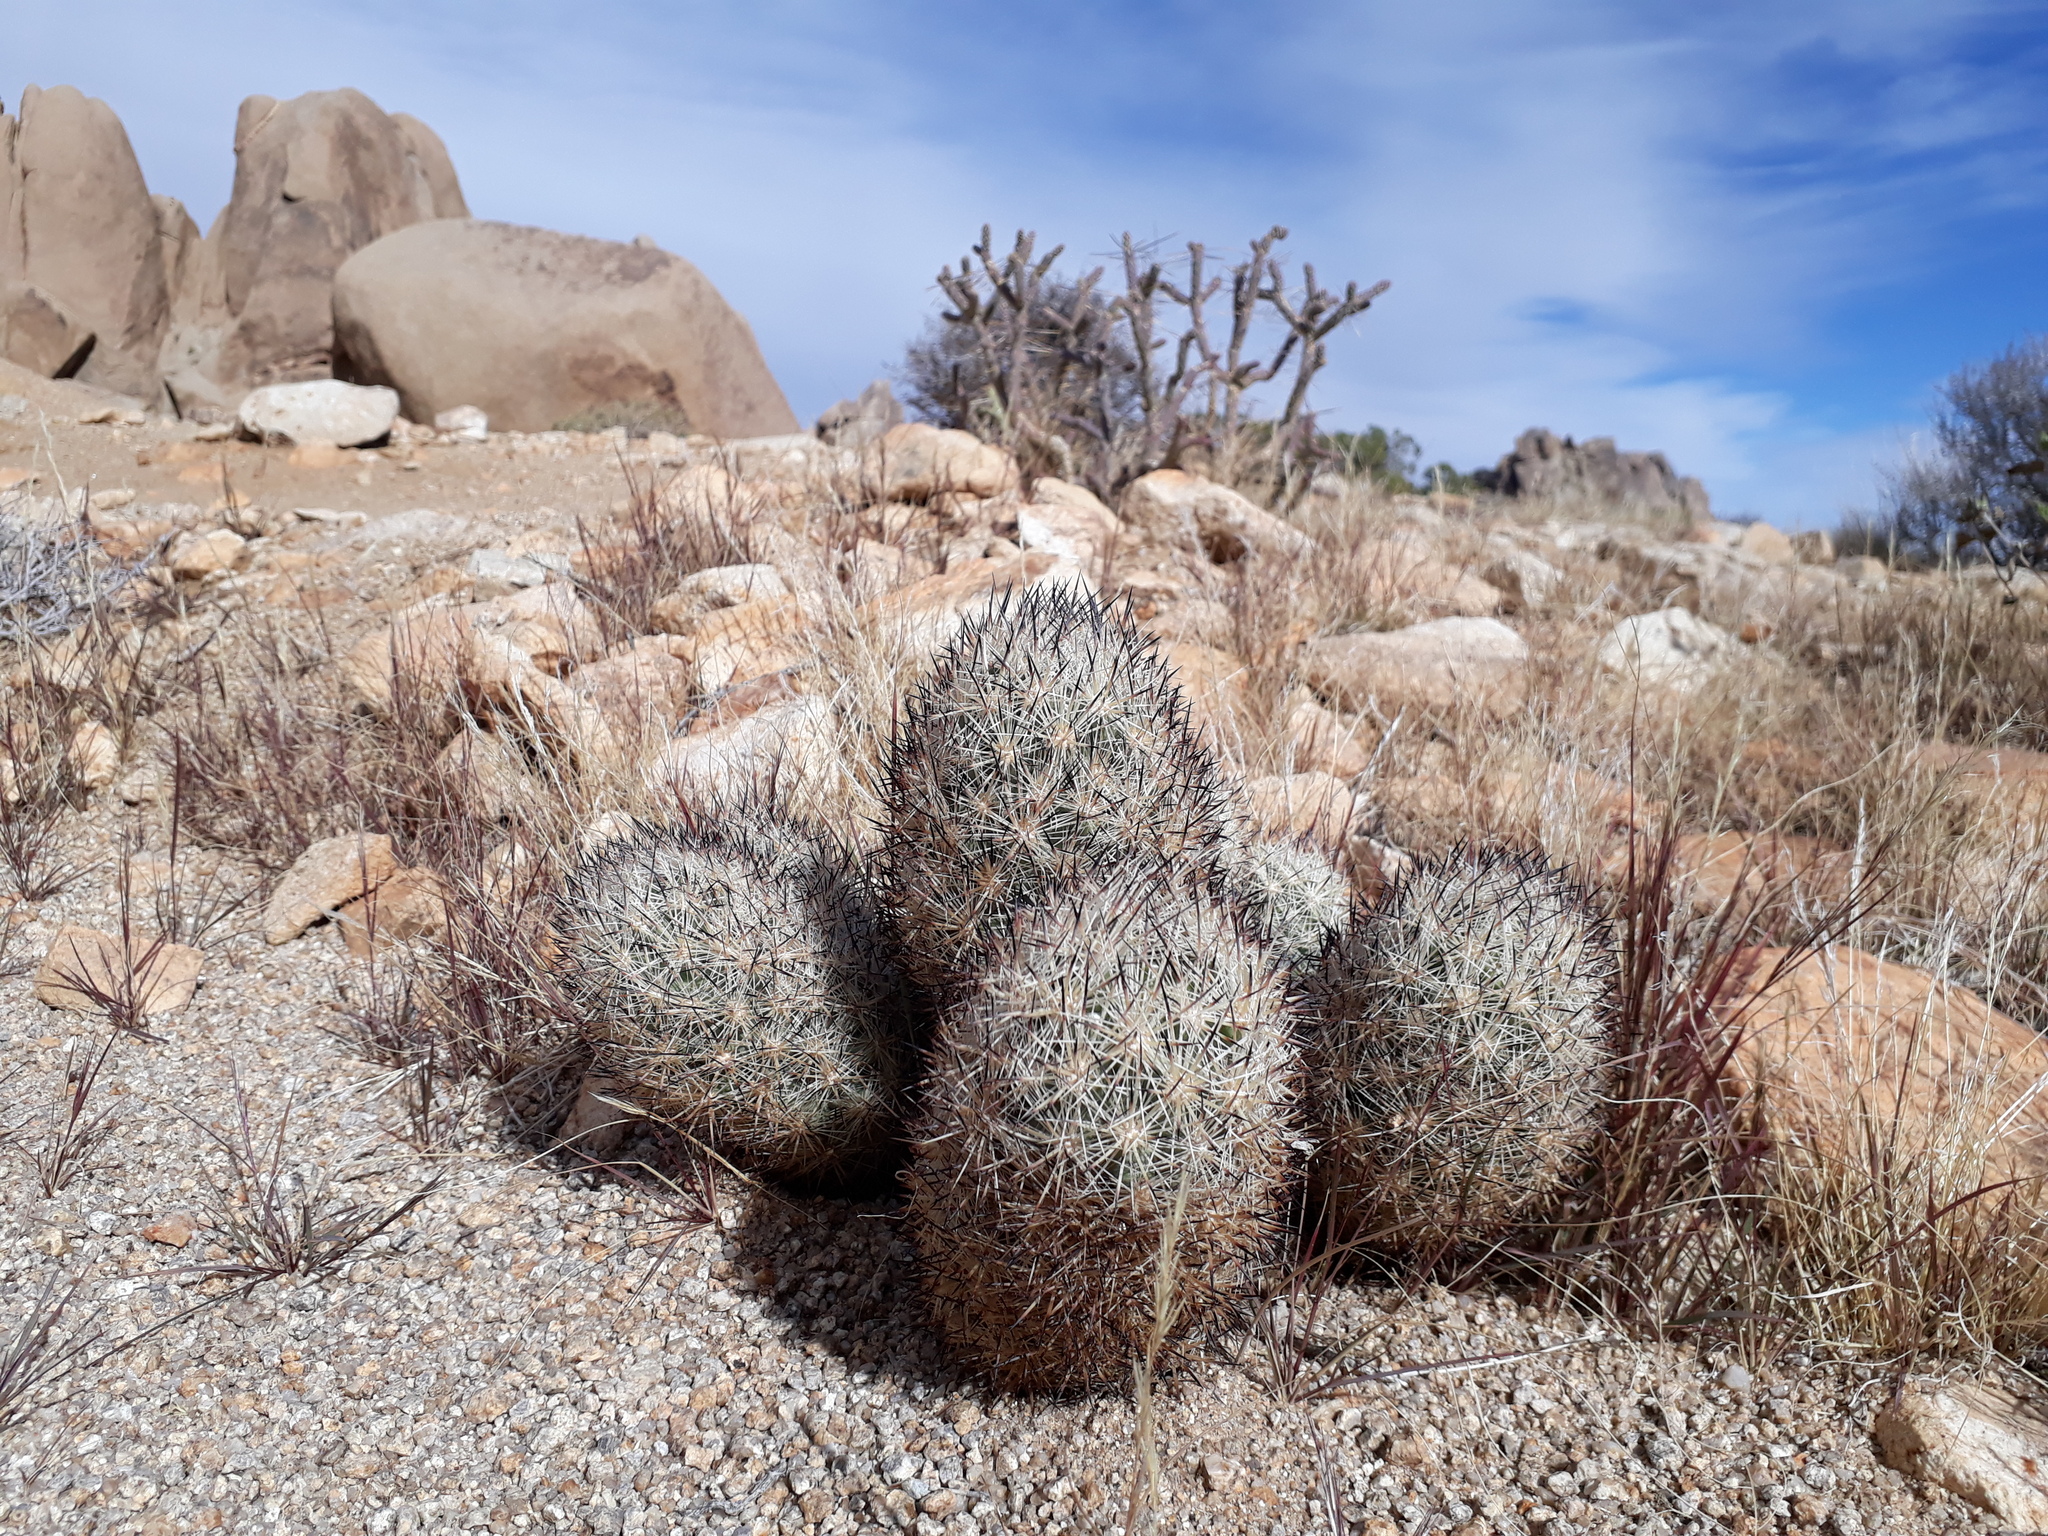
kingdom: Plantae
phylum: Tracheophyta
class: Magnoliopsida
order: Caryophyllales
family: Cactaceae
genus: Pelecyphora
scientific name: Pelecyphora alversonii
